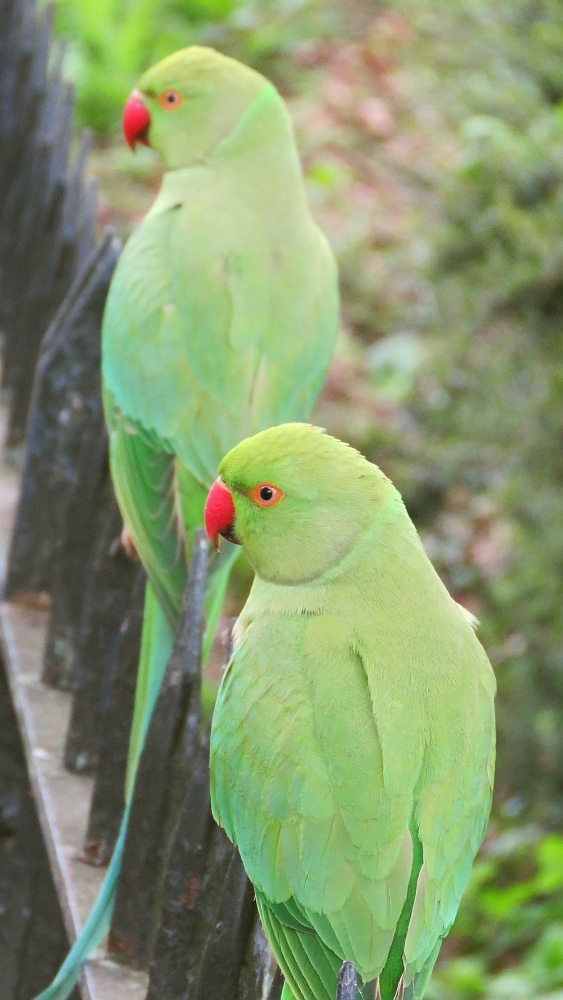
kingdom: Animalia
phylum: Chordata
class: Aves
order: Psittaciformes
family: Psittacidae
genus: Psittacula
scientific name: Psittacula krameri
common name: Rose-ringed parakeet
